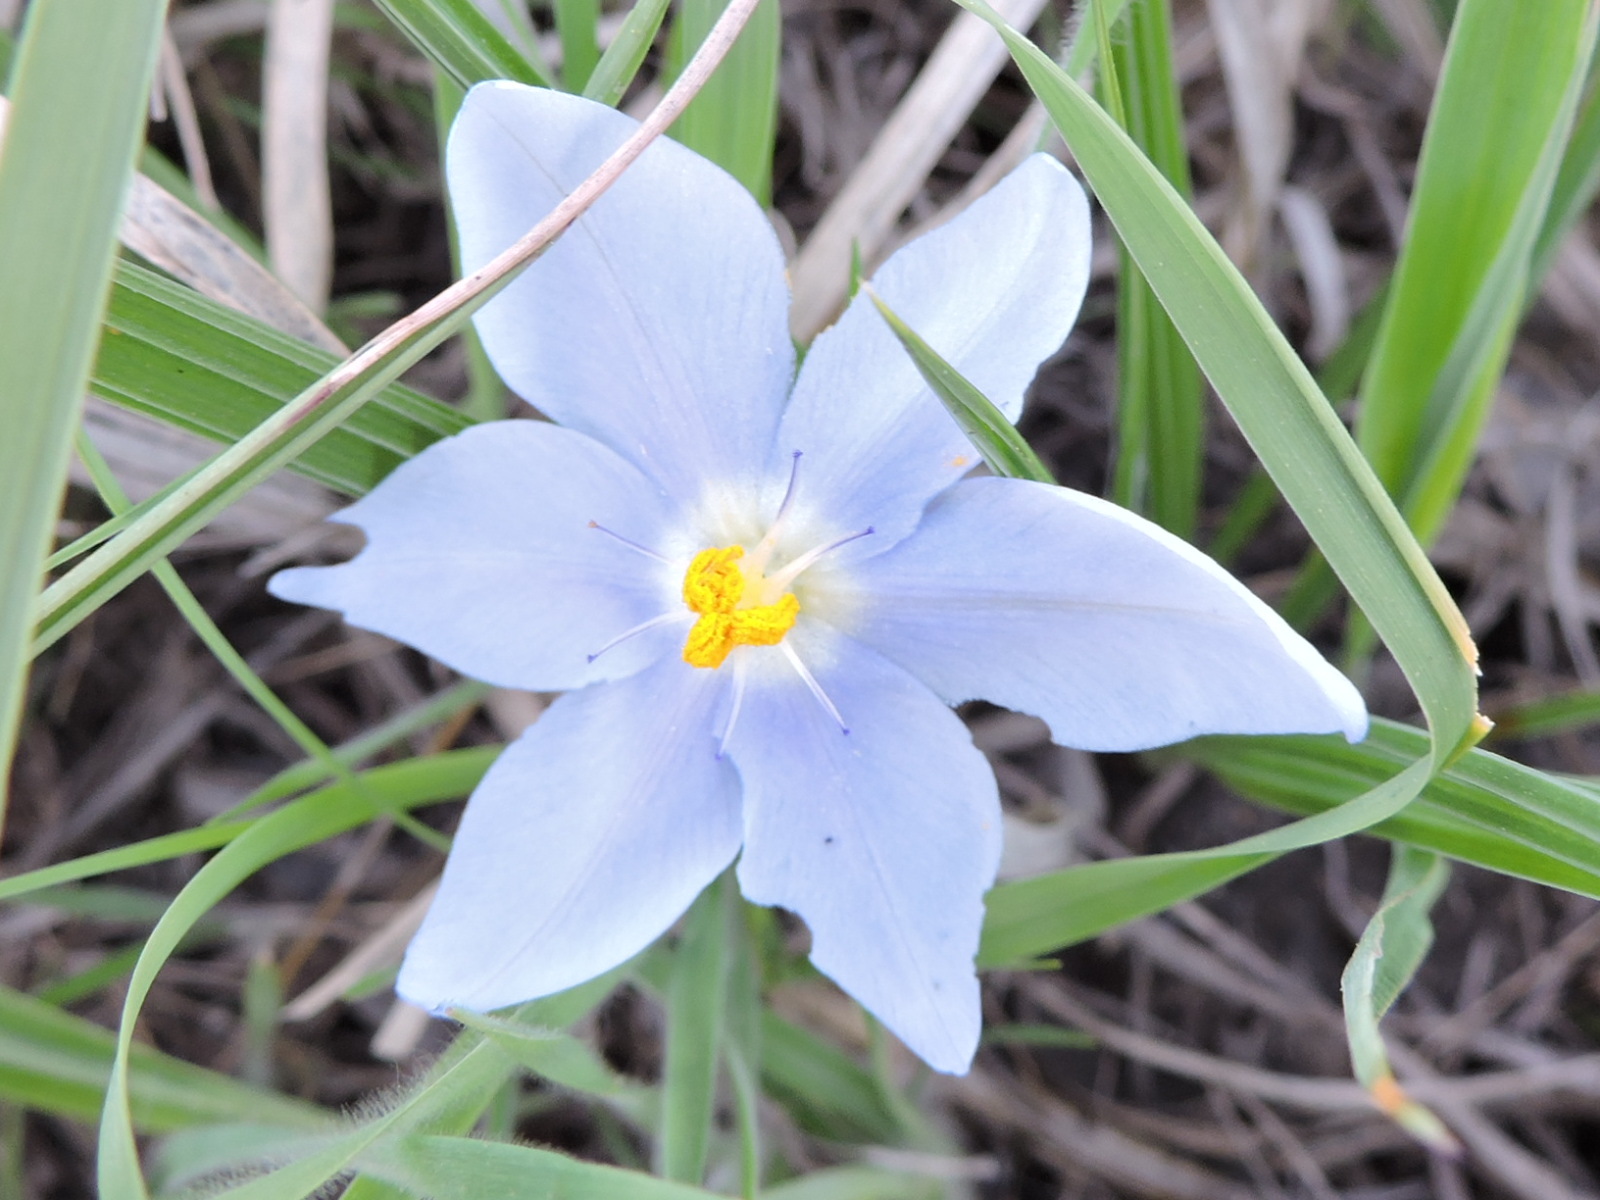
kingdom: Plantae
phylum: Tracheophyta
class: Liliopsida
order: Asparagales
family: Iridaceae
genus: Nemastylis
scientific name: Nemastylis geminiflora
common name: Prairie celestial
